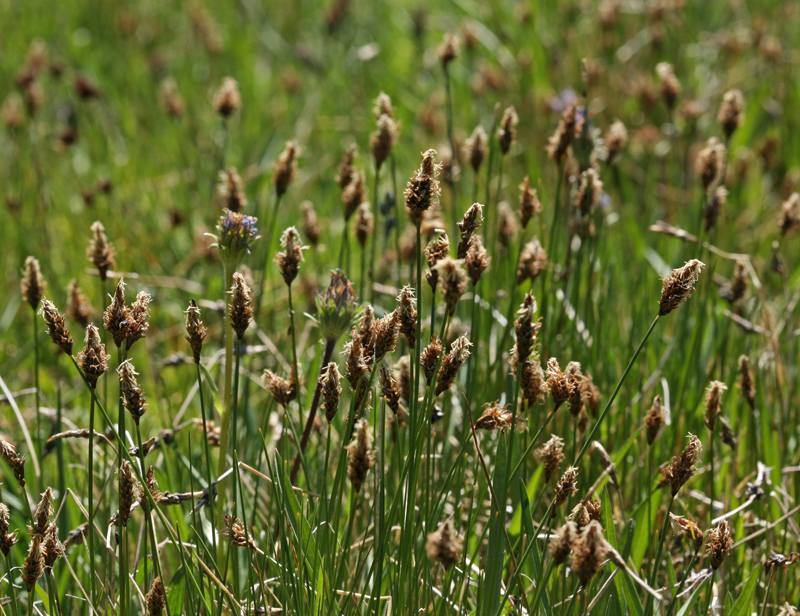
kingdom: Plantae
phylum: Tracheophyta
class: Liliopsida
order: Poales
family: Cyperaceae
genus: Carex
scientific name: Carex subnigricans
